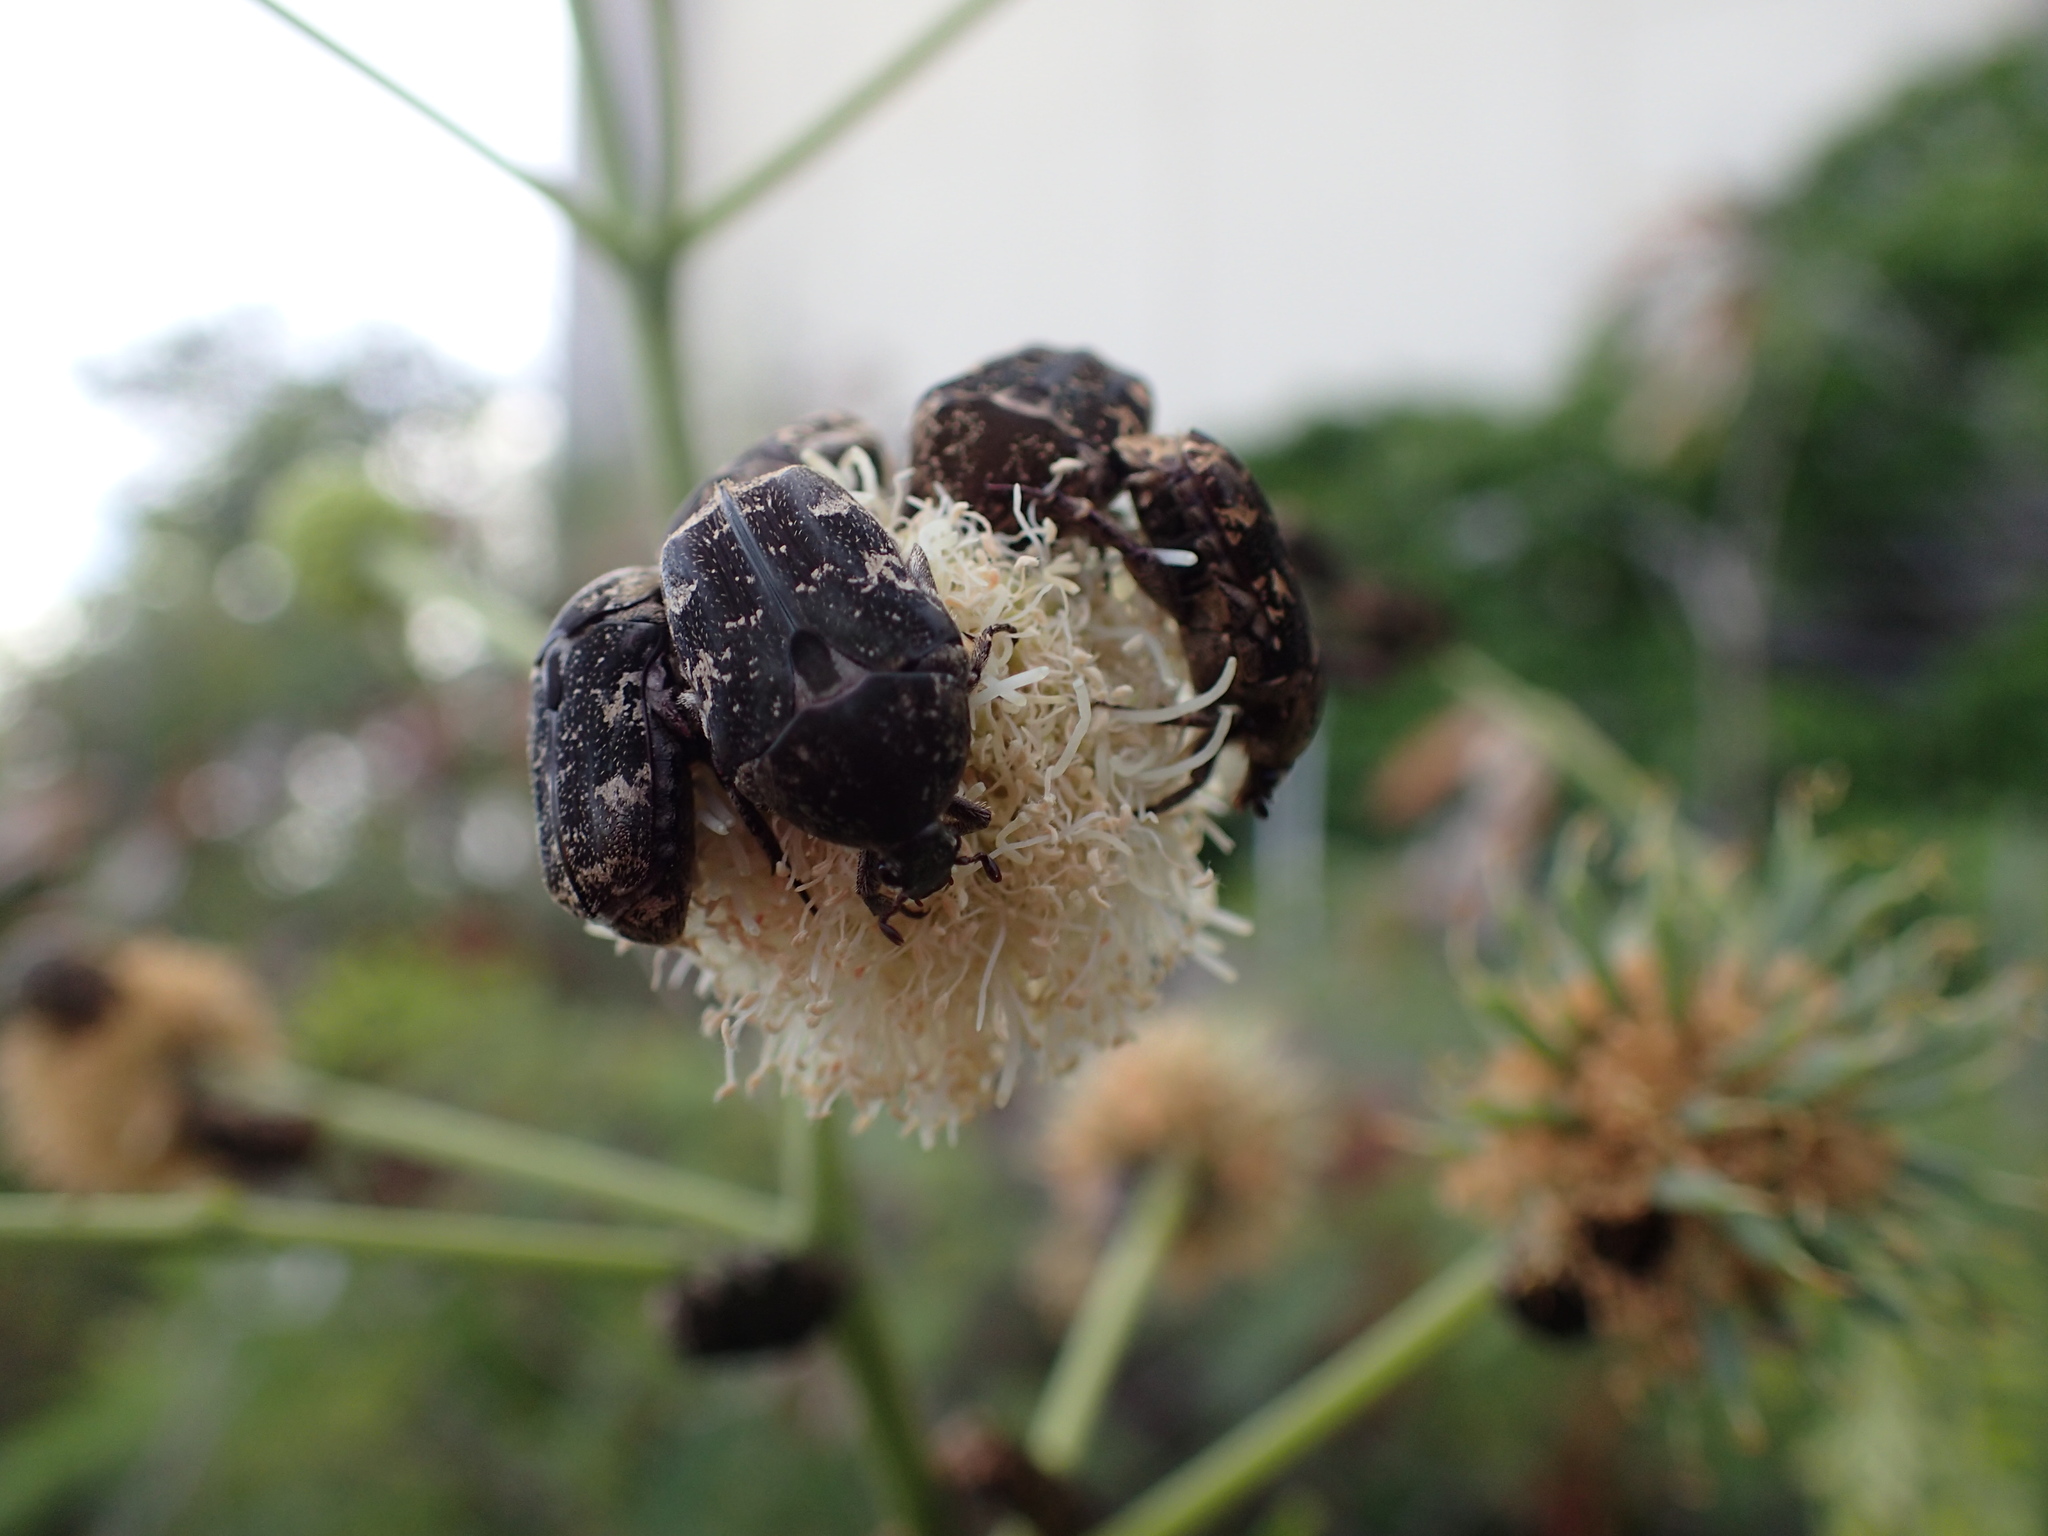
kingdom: Animalia
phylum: Arthropoda
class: Insecta
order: Coleoptera
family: Scarabaeidae
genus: Protaetia
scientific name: Protaetia fusca
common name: Mango flower beetle
